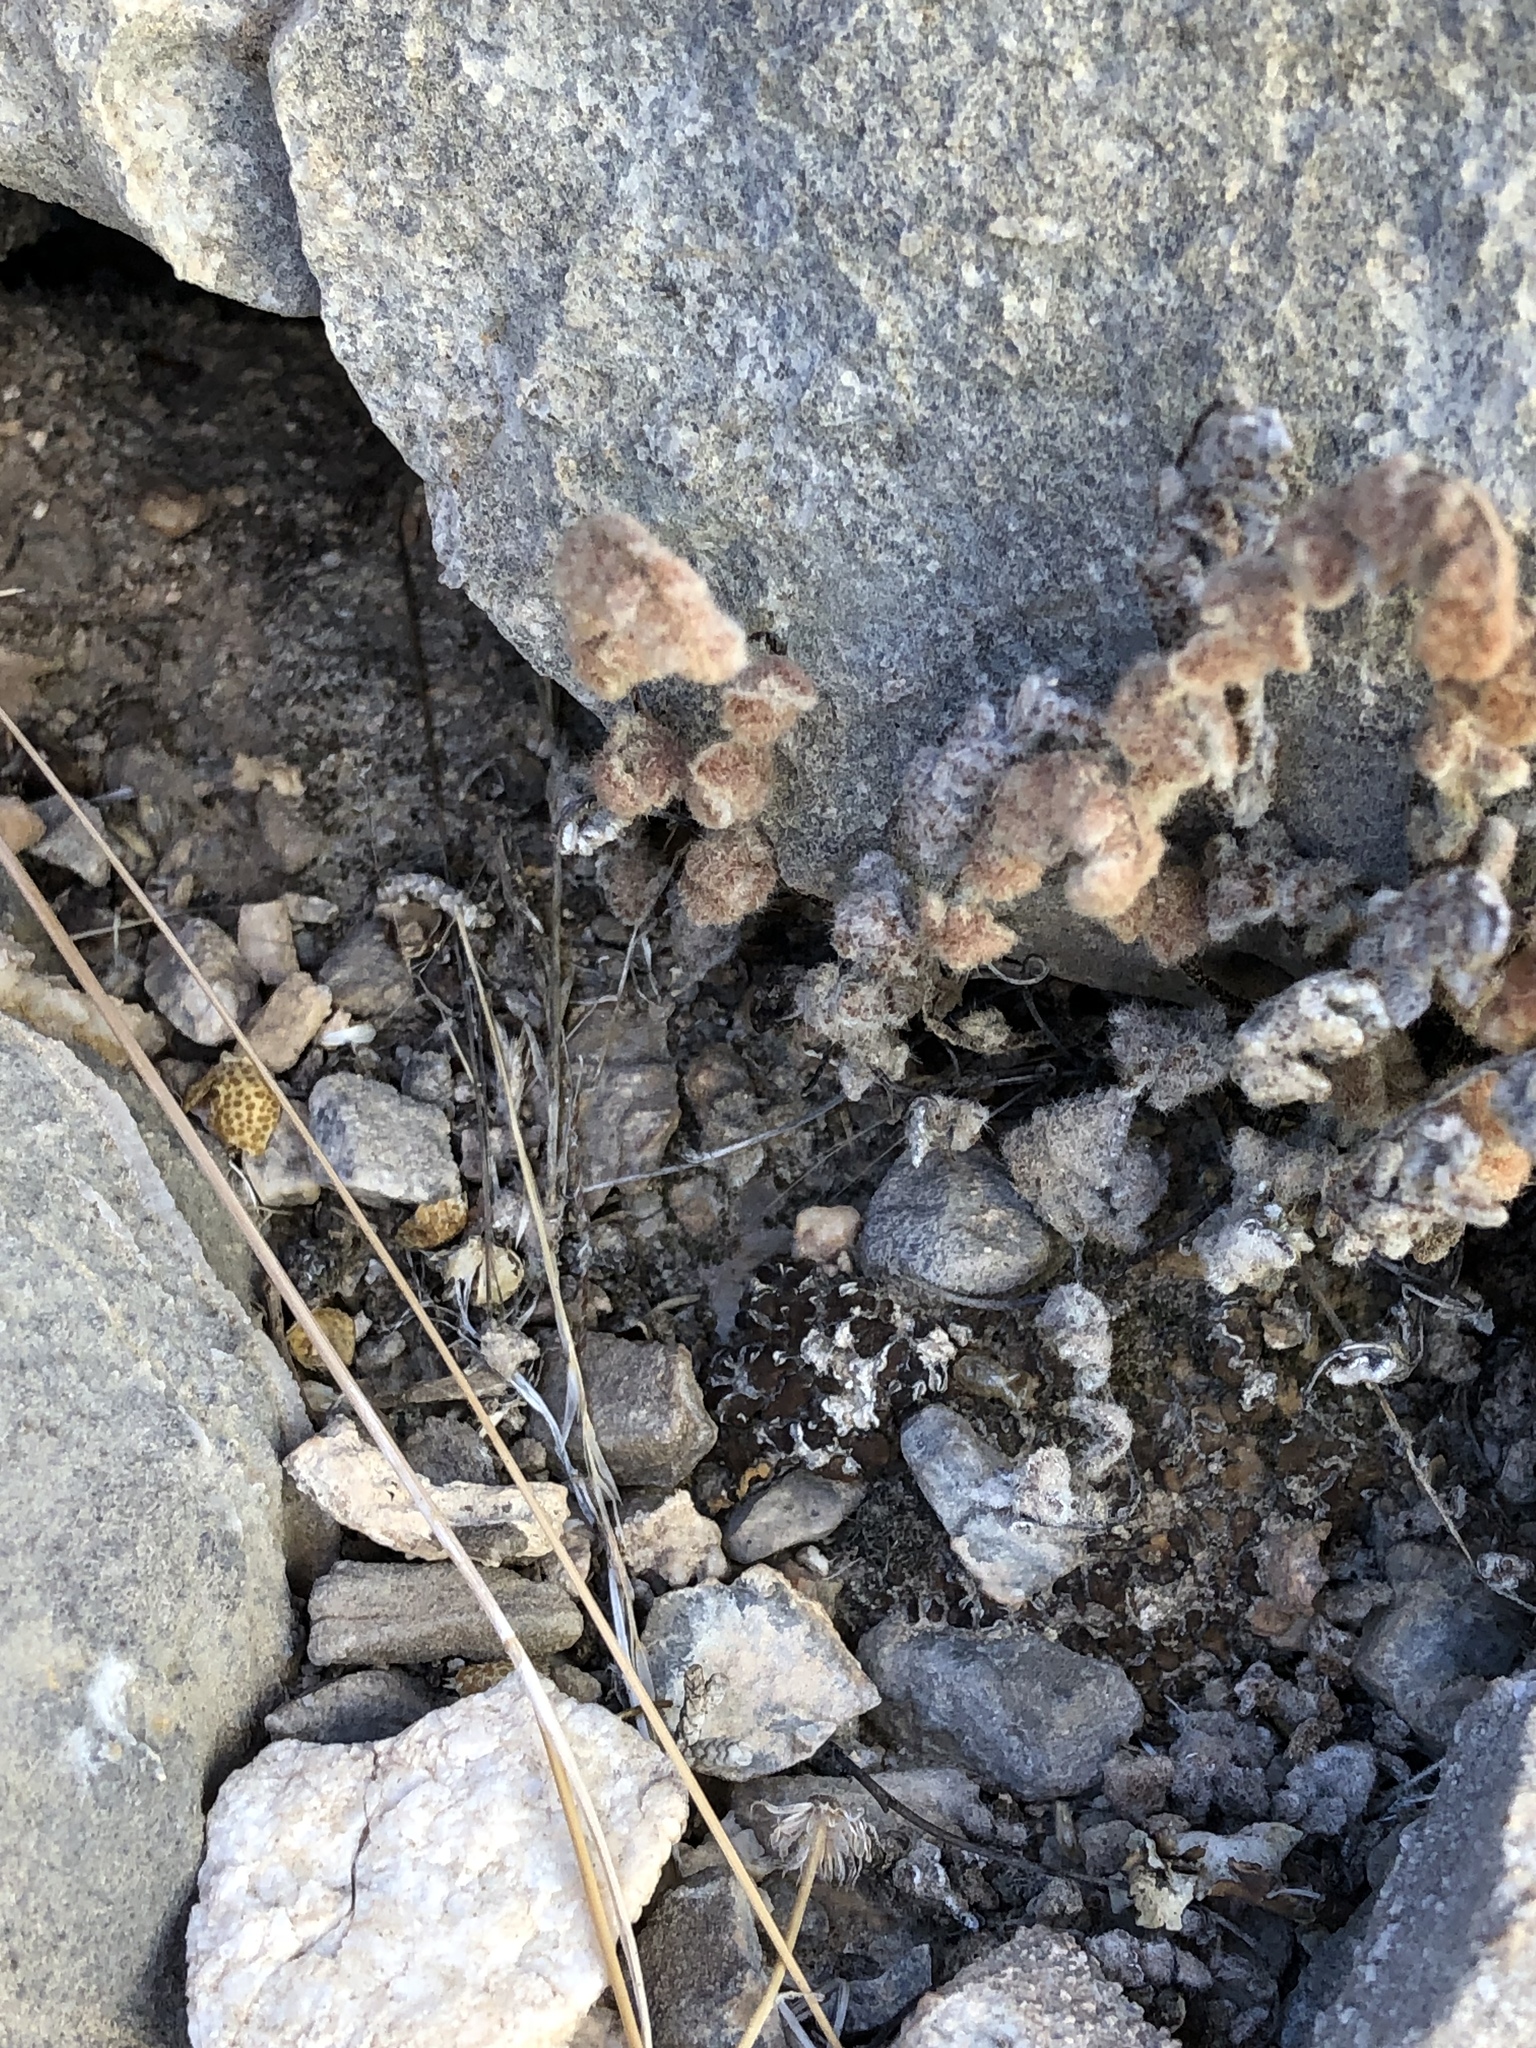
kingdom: Plantae
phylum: Tracheophyta
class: Polypodiopsida
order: Polypodiales
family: Pteridaceae
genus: Myriopteris
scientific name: Myriopteris parryi
